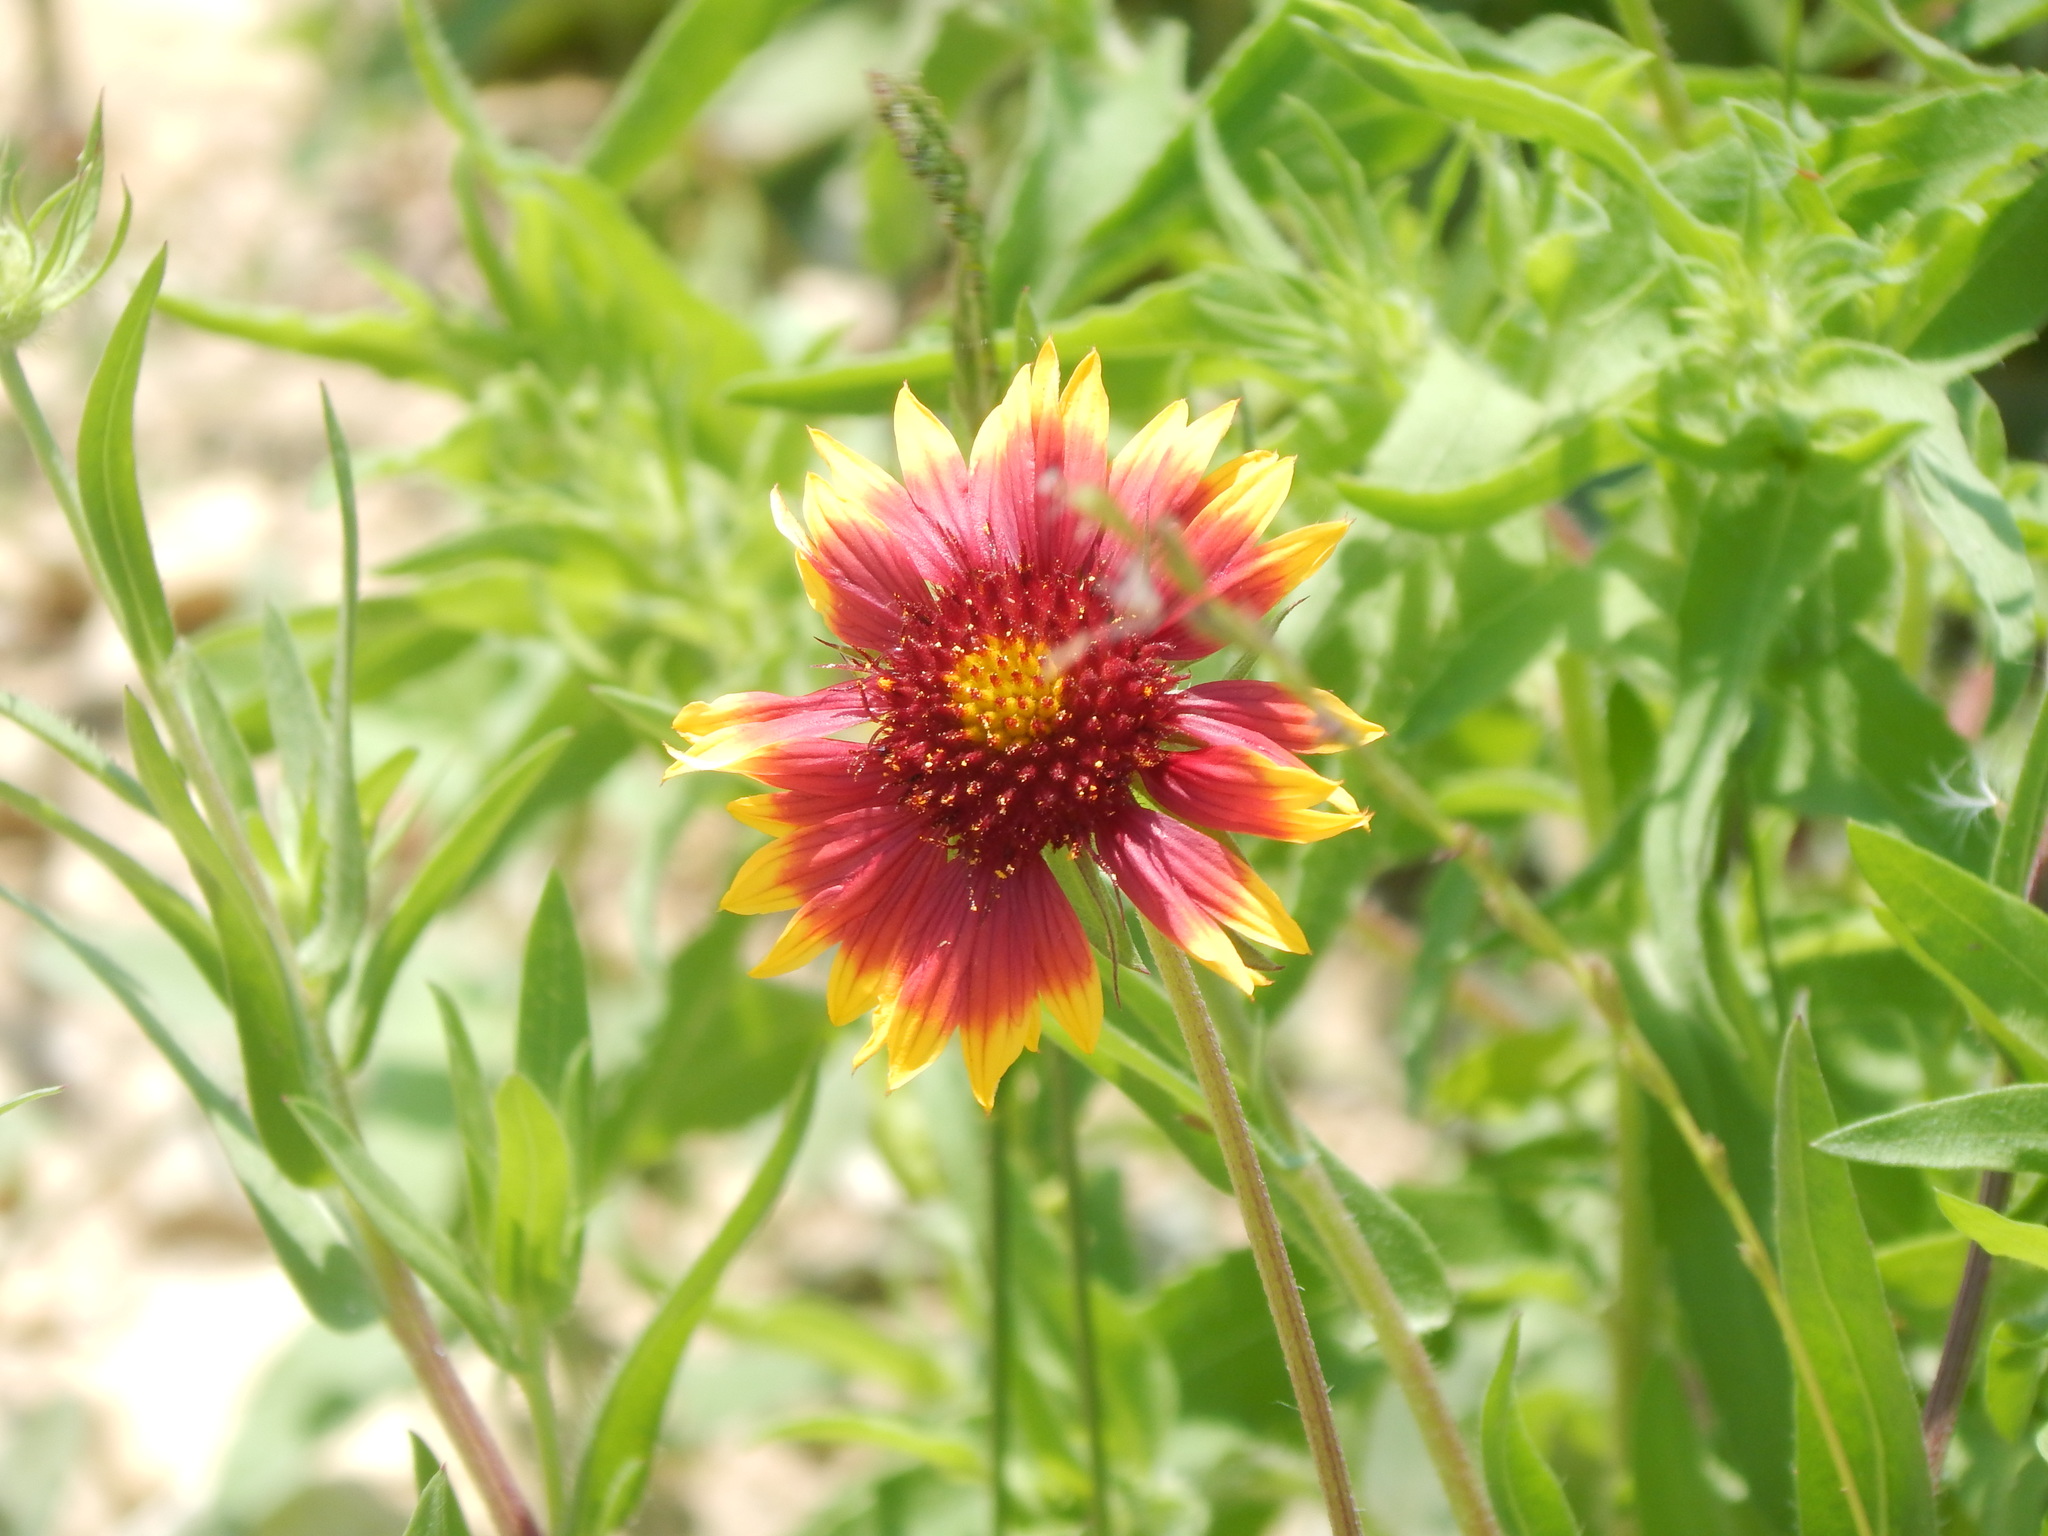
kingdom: Plantae
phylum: Tracheophyta
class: Magnoliopsida
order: Asterales
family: Asteraceae
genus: Gaillardia
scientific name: Gaillardia pulchella
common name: Firewheel
